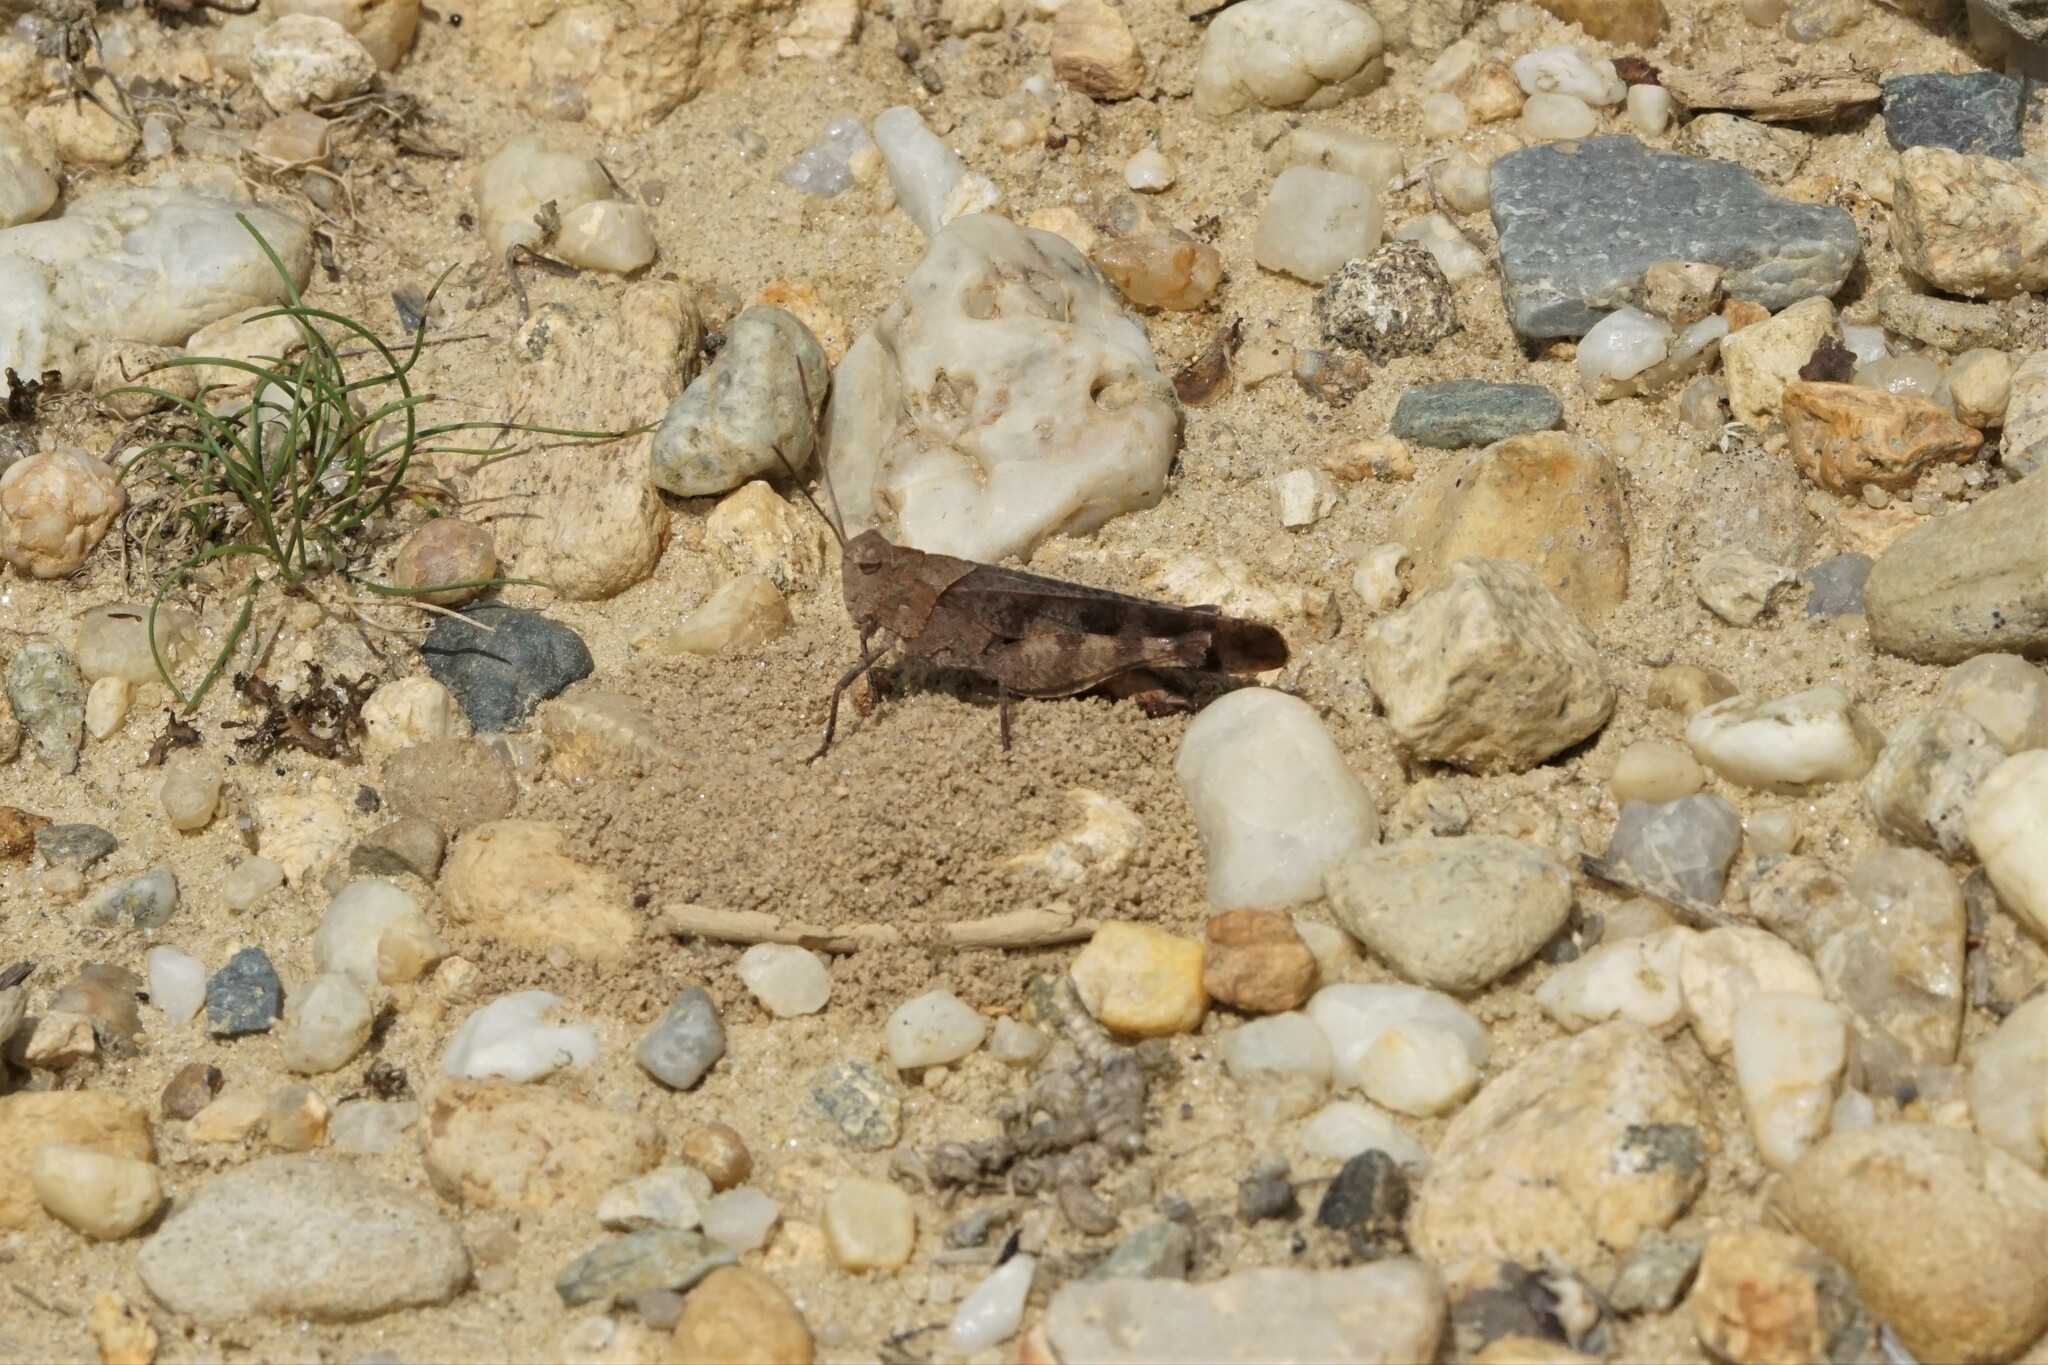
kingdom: Animalia
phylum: Arthropoda
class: Insecta
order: Orthoptera
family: Acrididae
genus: Spharagemon
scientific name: Spharagemon bolli
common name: Boll's grasshopper
